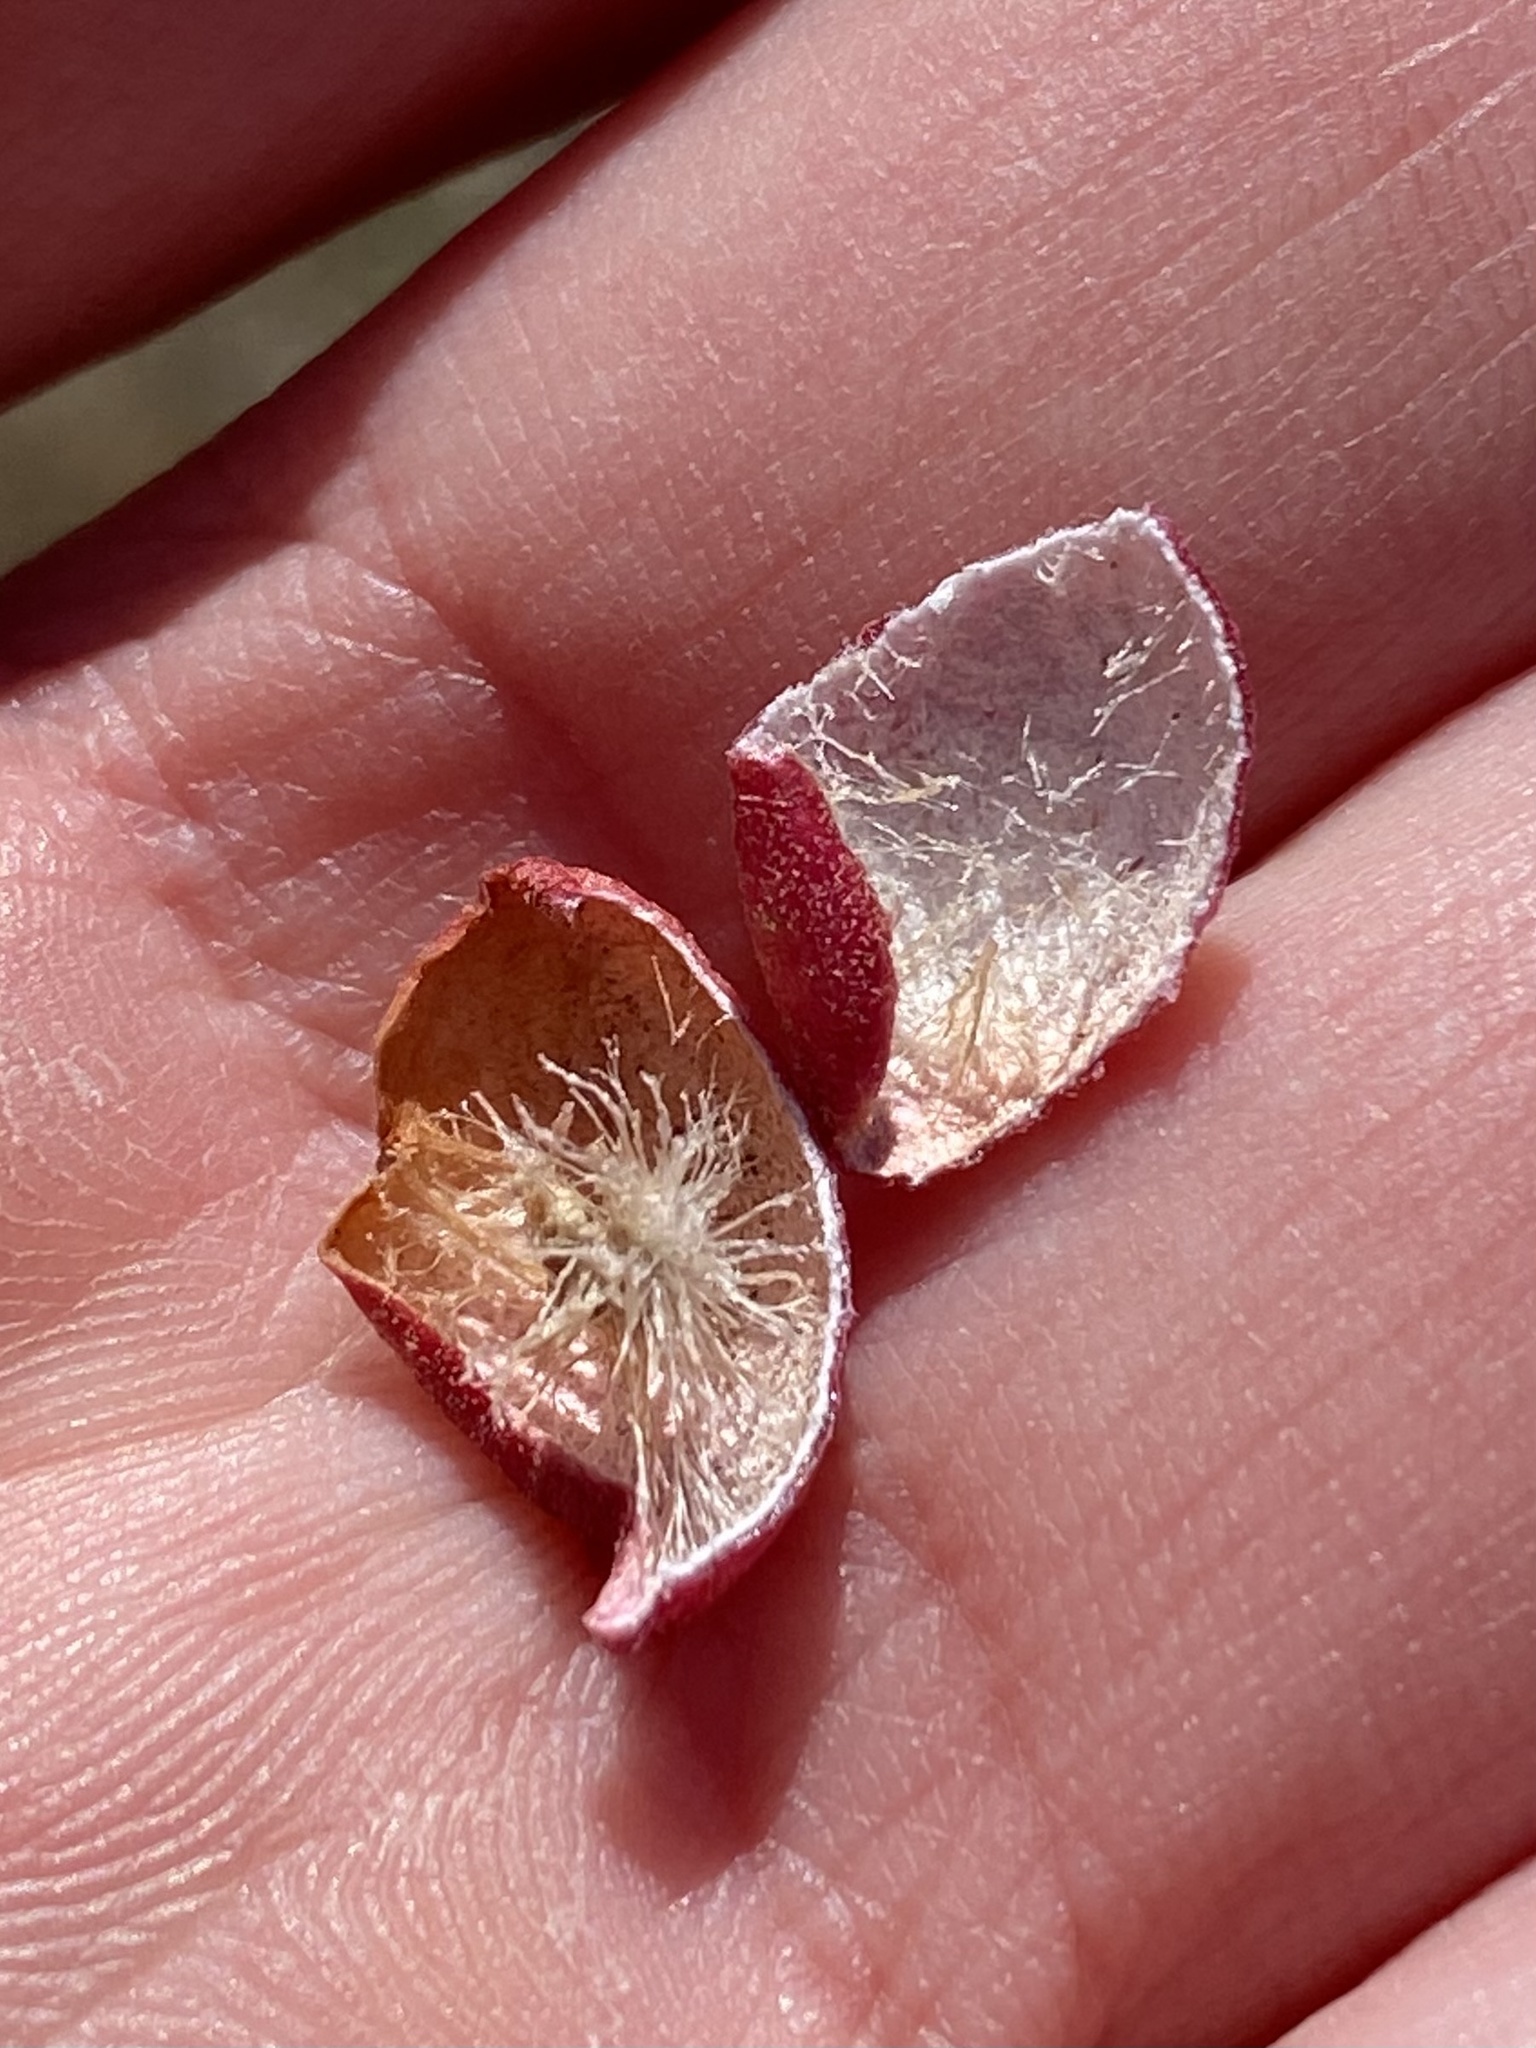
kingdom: Animalia
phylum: Arthropoda
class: Insecta
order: Hymenoptera
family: Cynipidae
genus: Atrusca
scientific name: Atrusca
